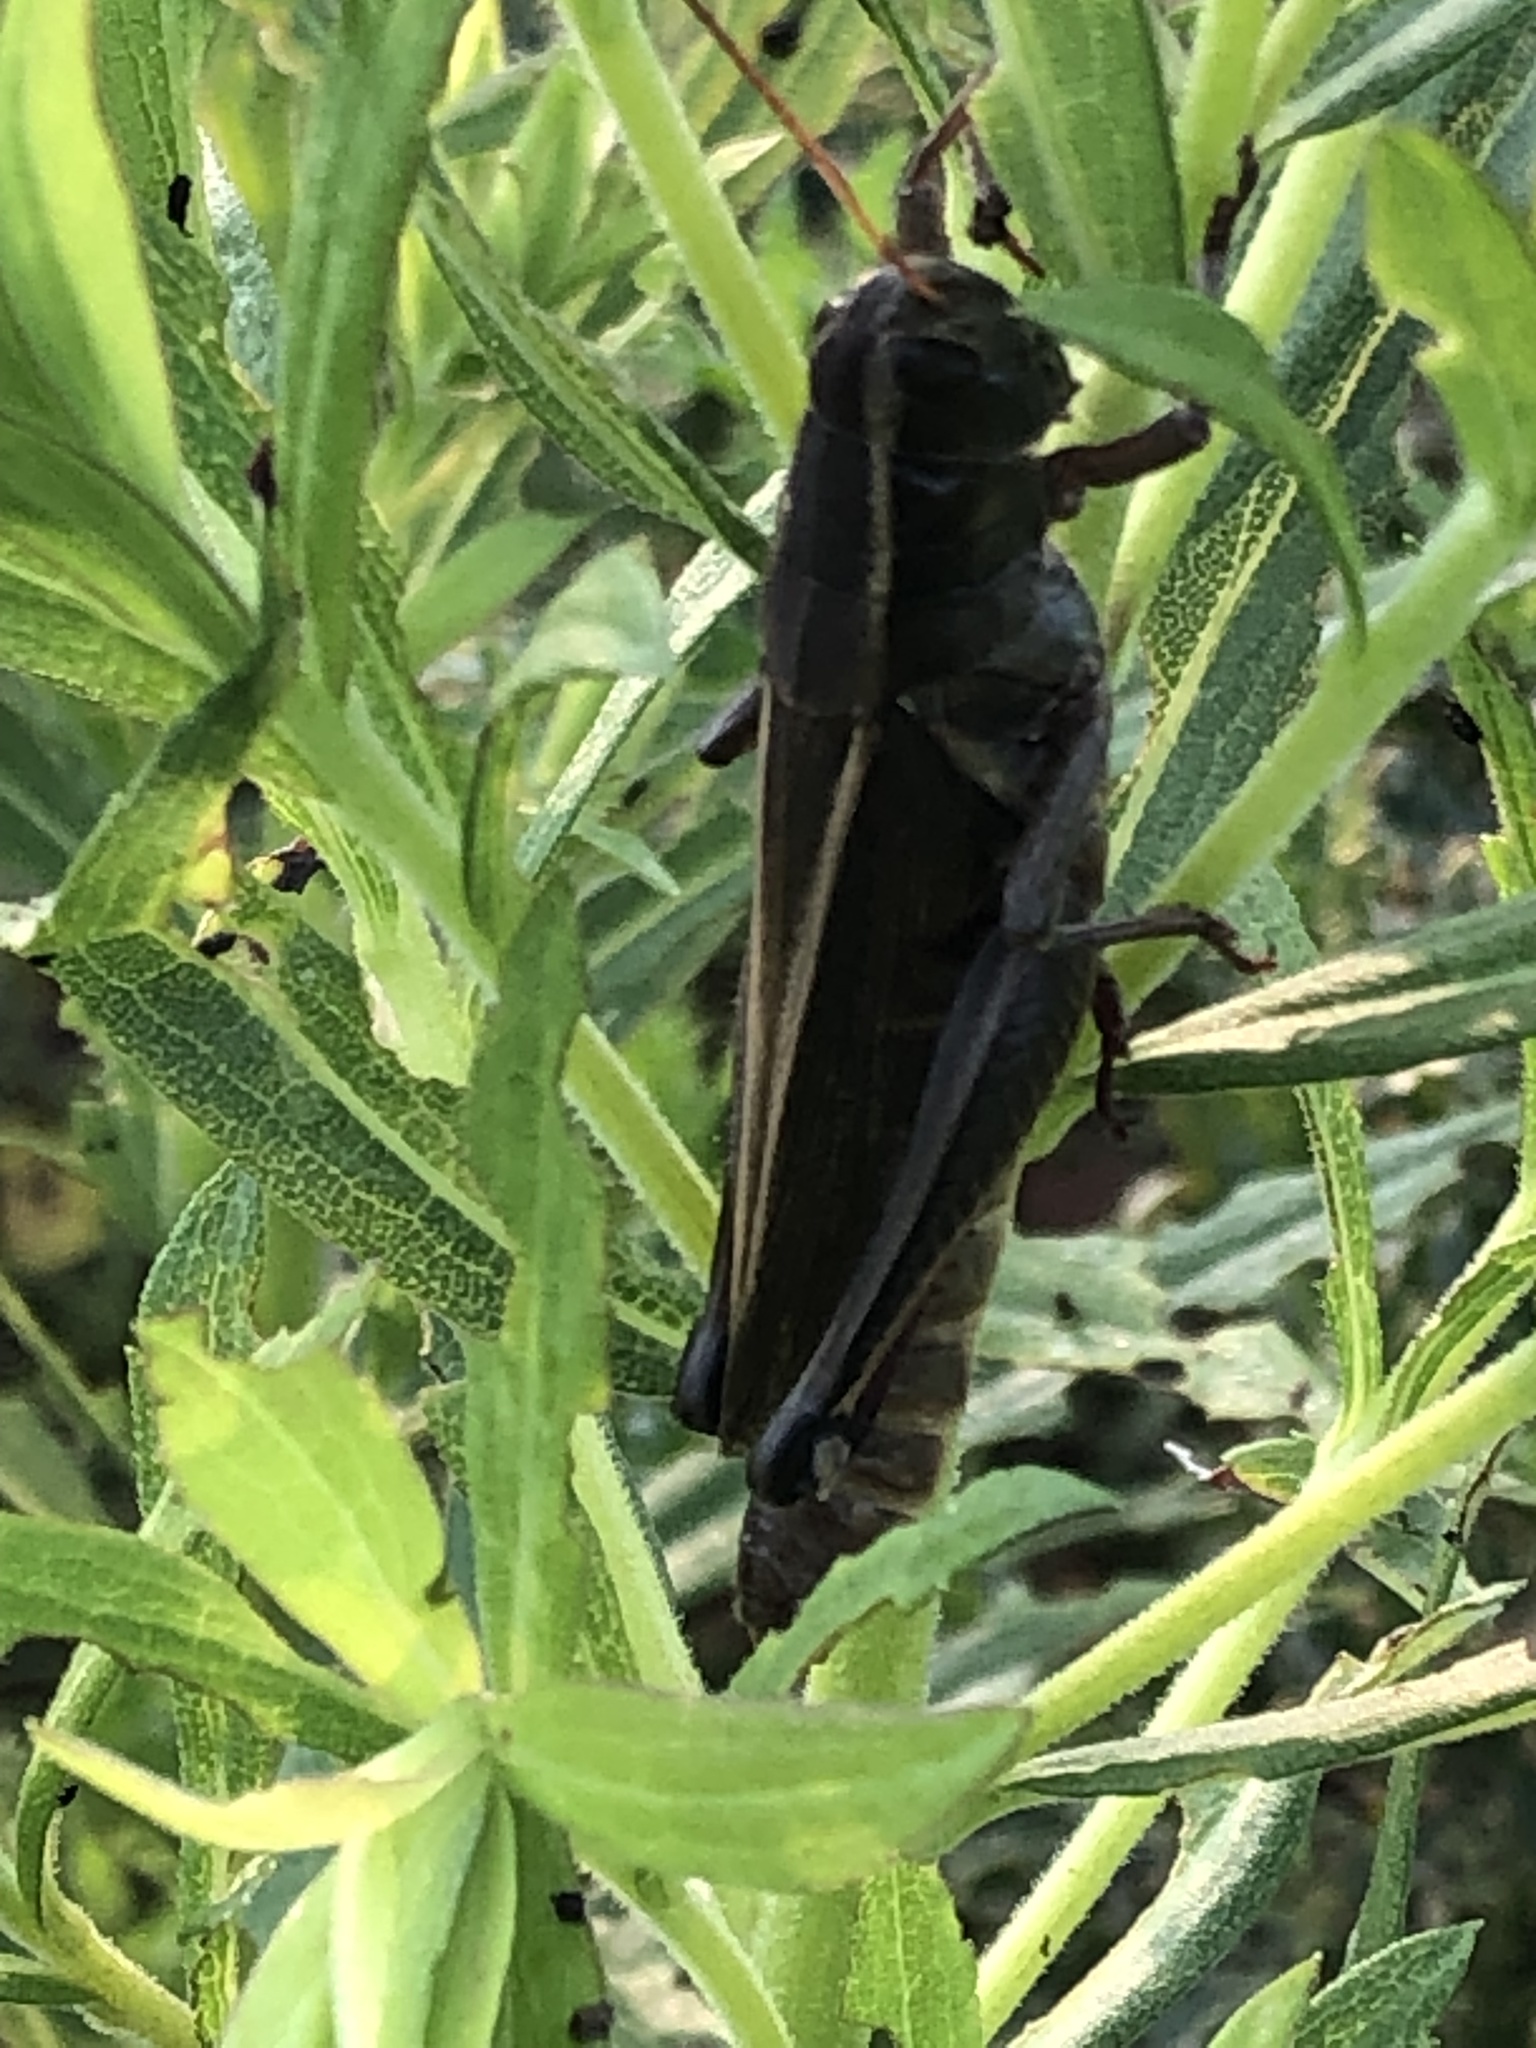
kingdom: Animalia
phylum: Arthropoda
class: Insecta
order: Orthoptera
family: Acrididae
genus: Melanoplus
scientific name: Melanoplus bivittatus
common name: Two-striped grasshopper
